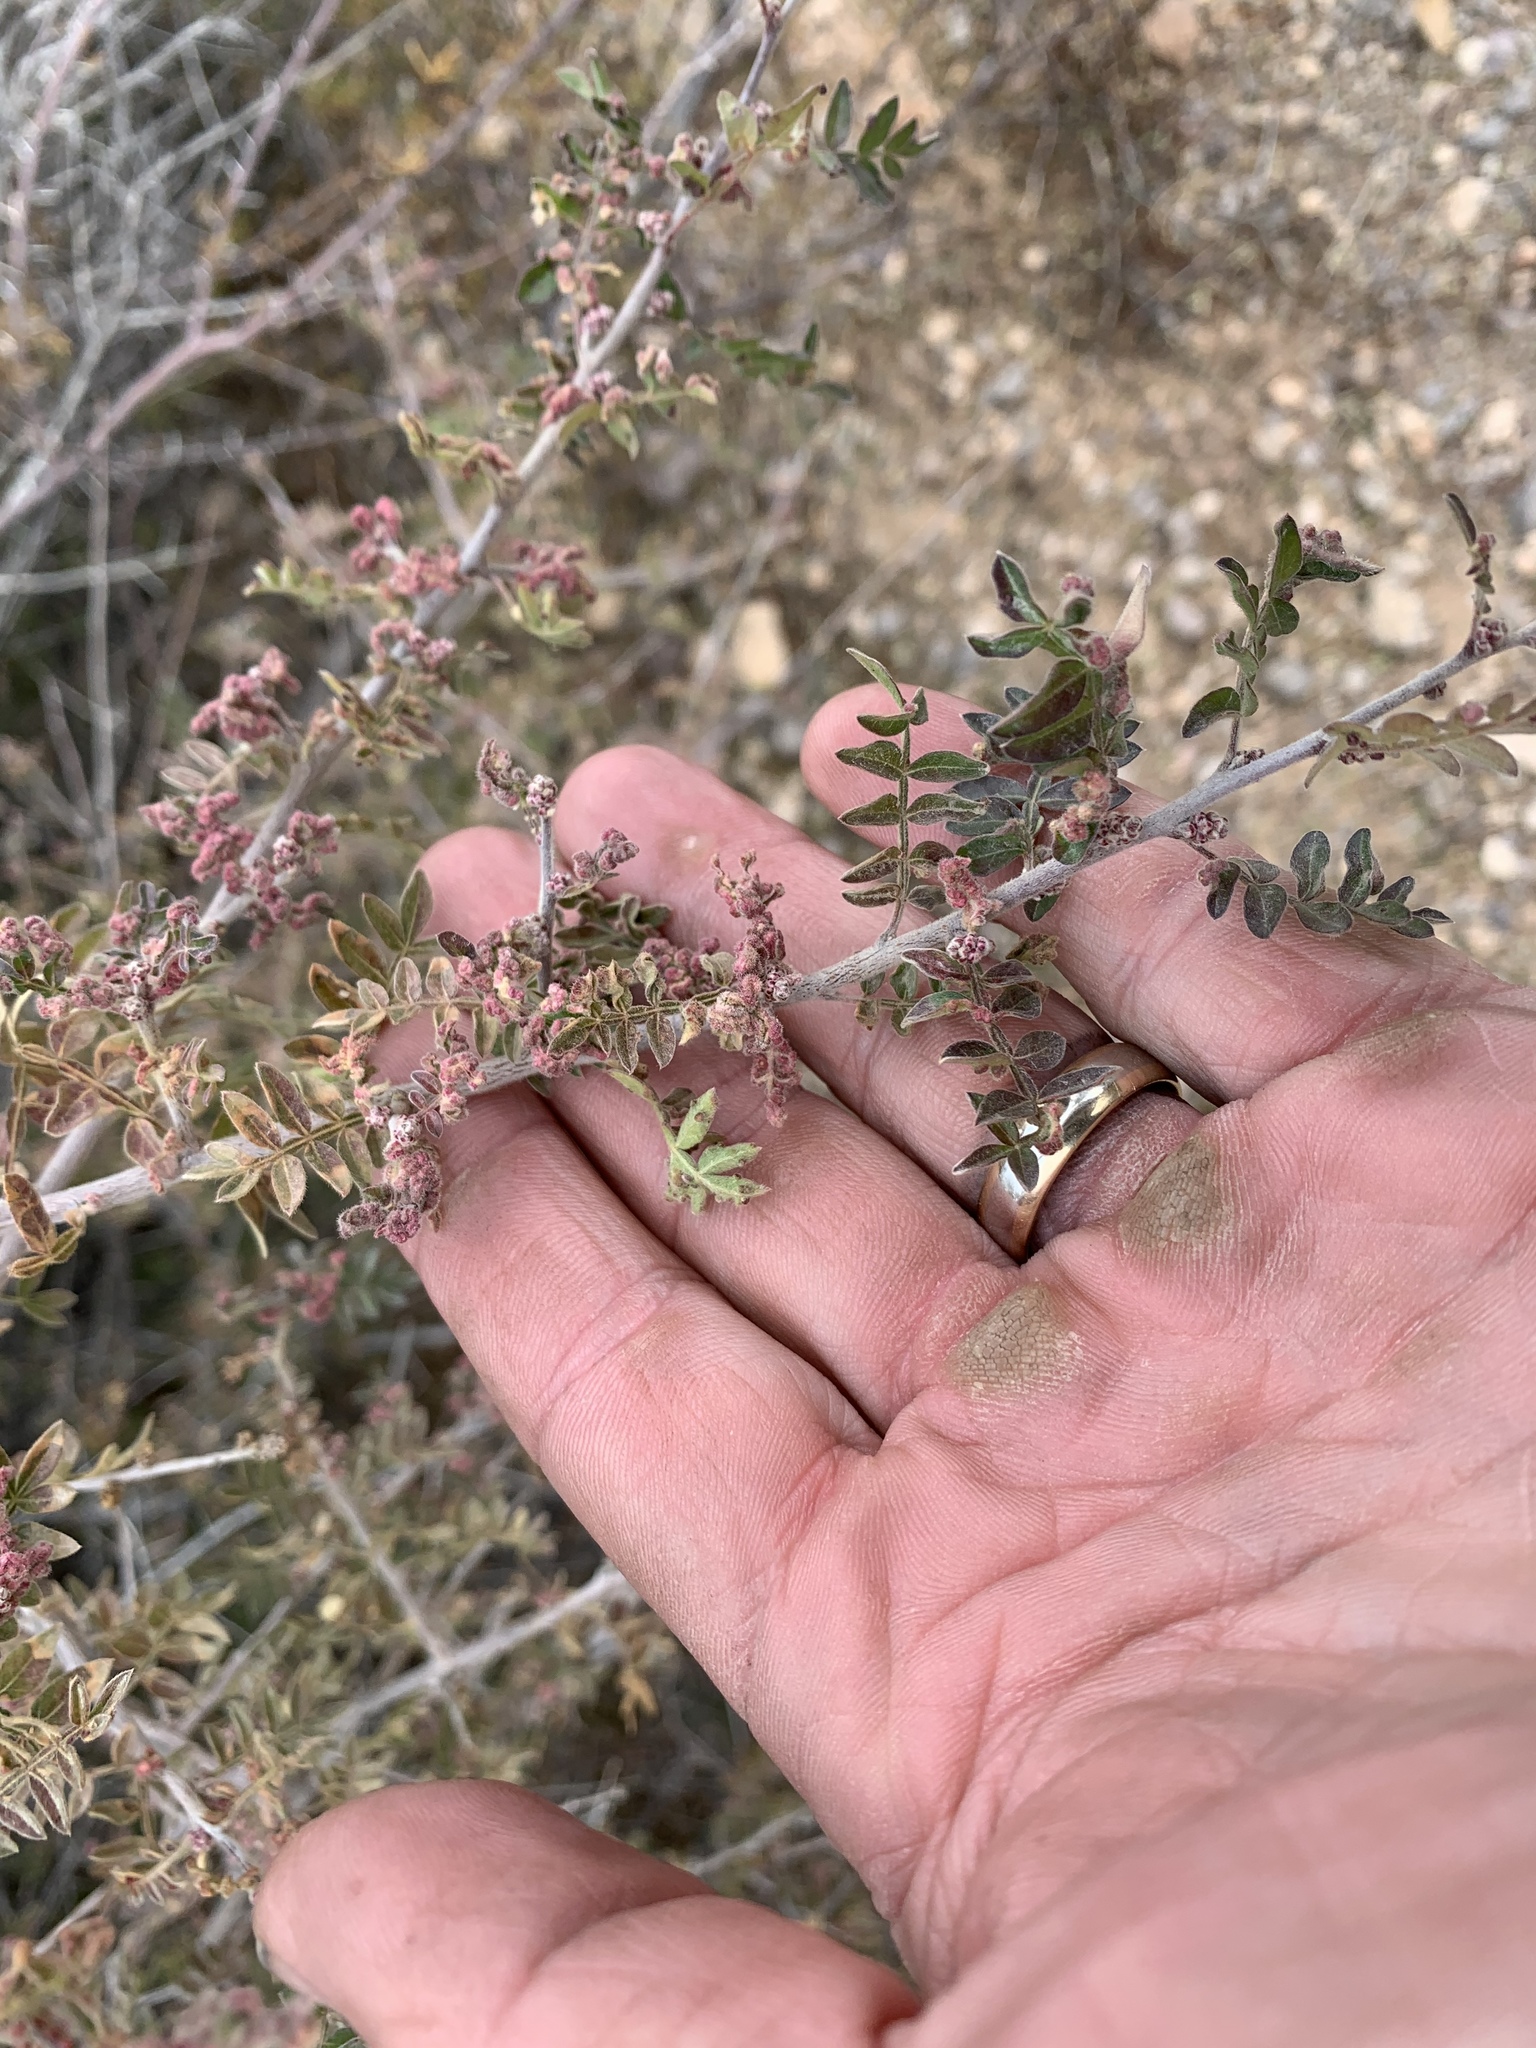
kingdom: Plantae
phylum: Tracheophyta
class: Magnoliopsida
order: Sapindales
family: Anacardiaceae
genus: Rhus
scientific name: Rhus microphylla
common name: Desert sumac
